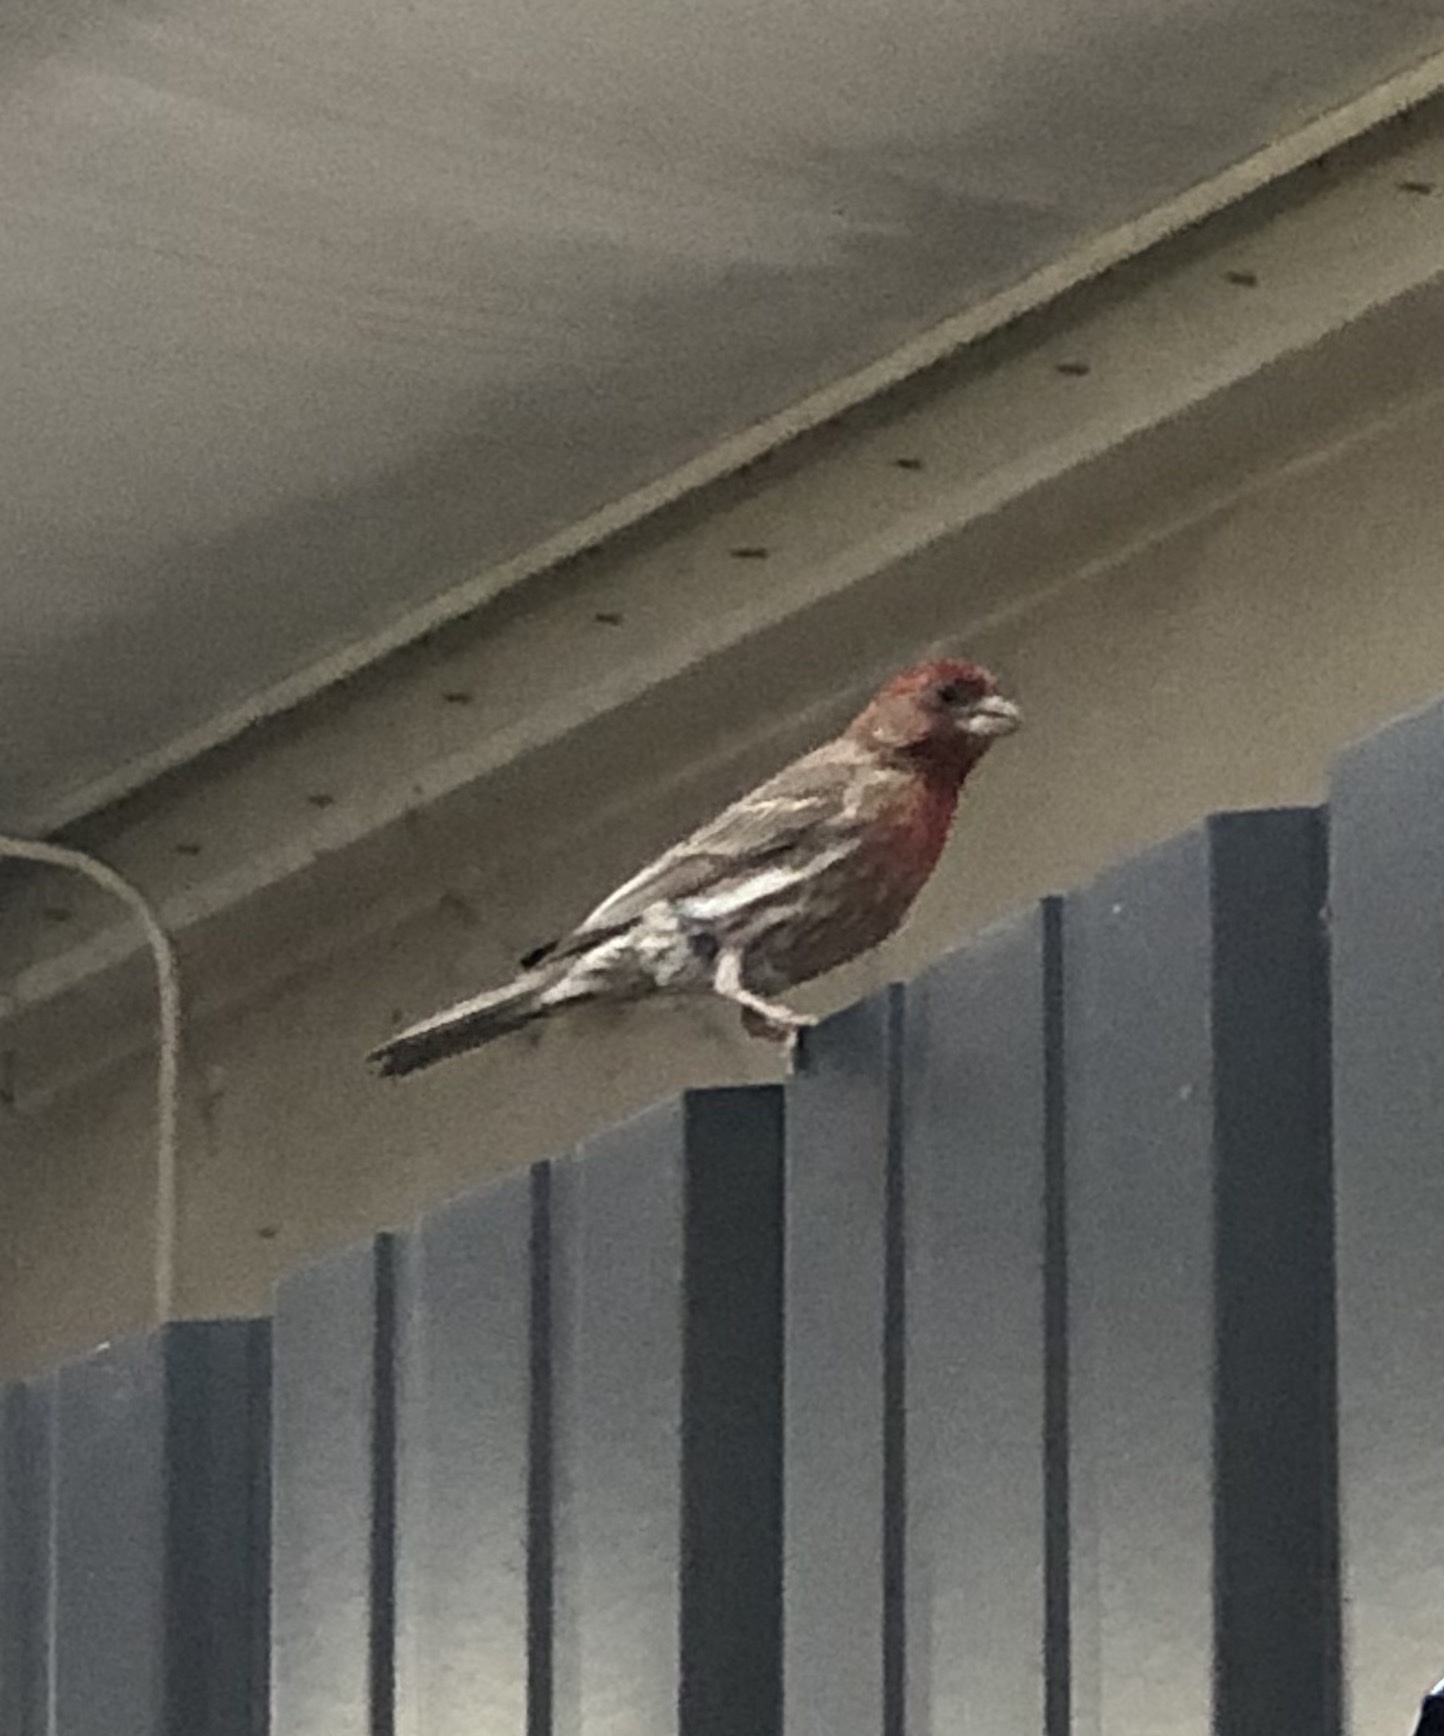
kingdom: Animalia
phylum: Chordata
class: Aves
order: Passeriformes
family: Fringillidae
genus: Haemorhous
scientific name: Haemorhous mexicanus
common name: House finch
